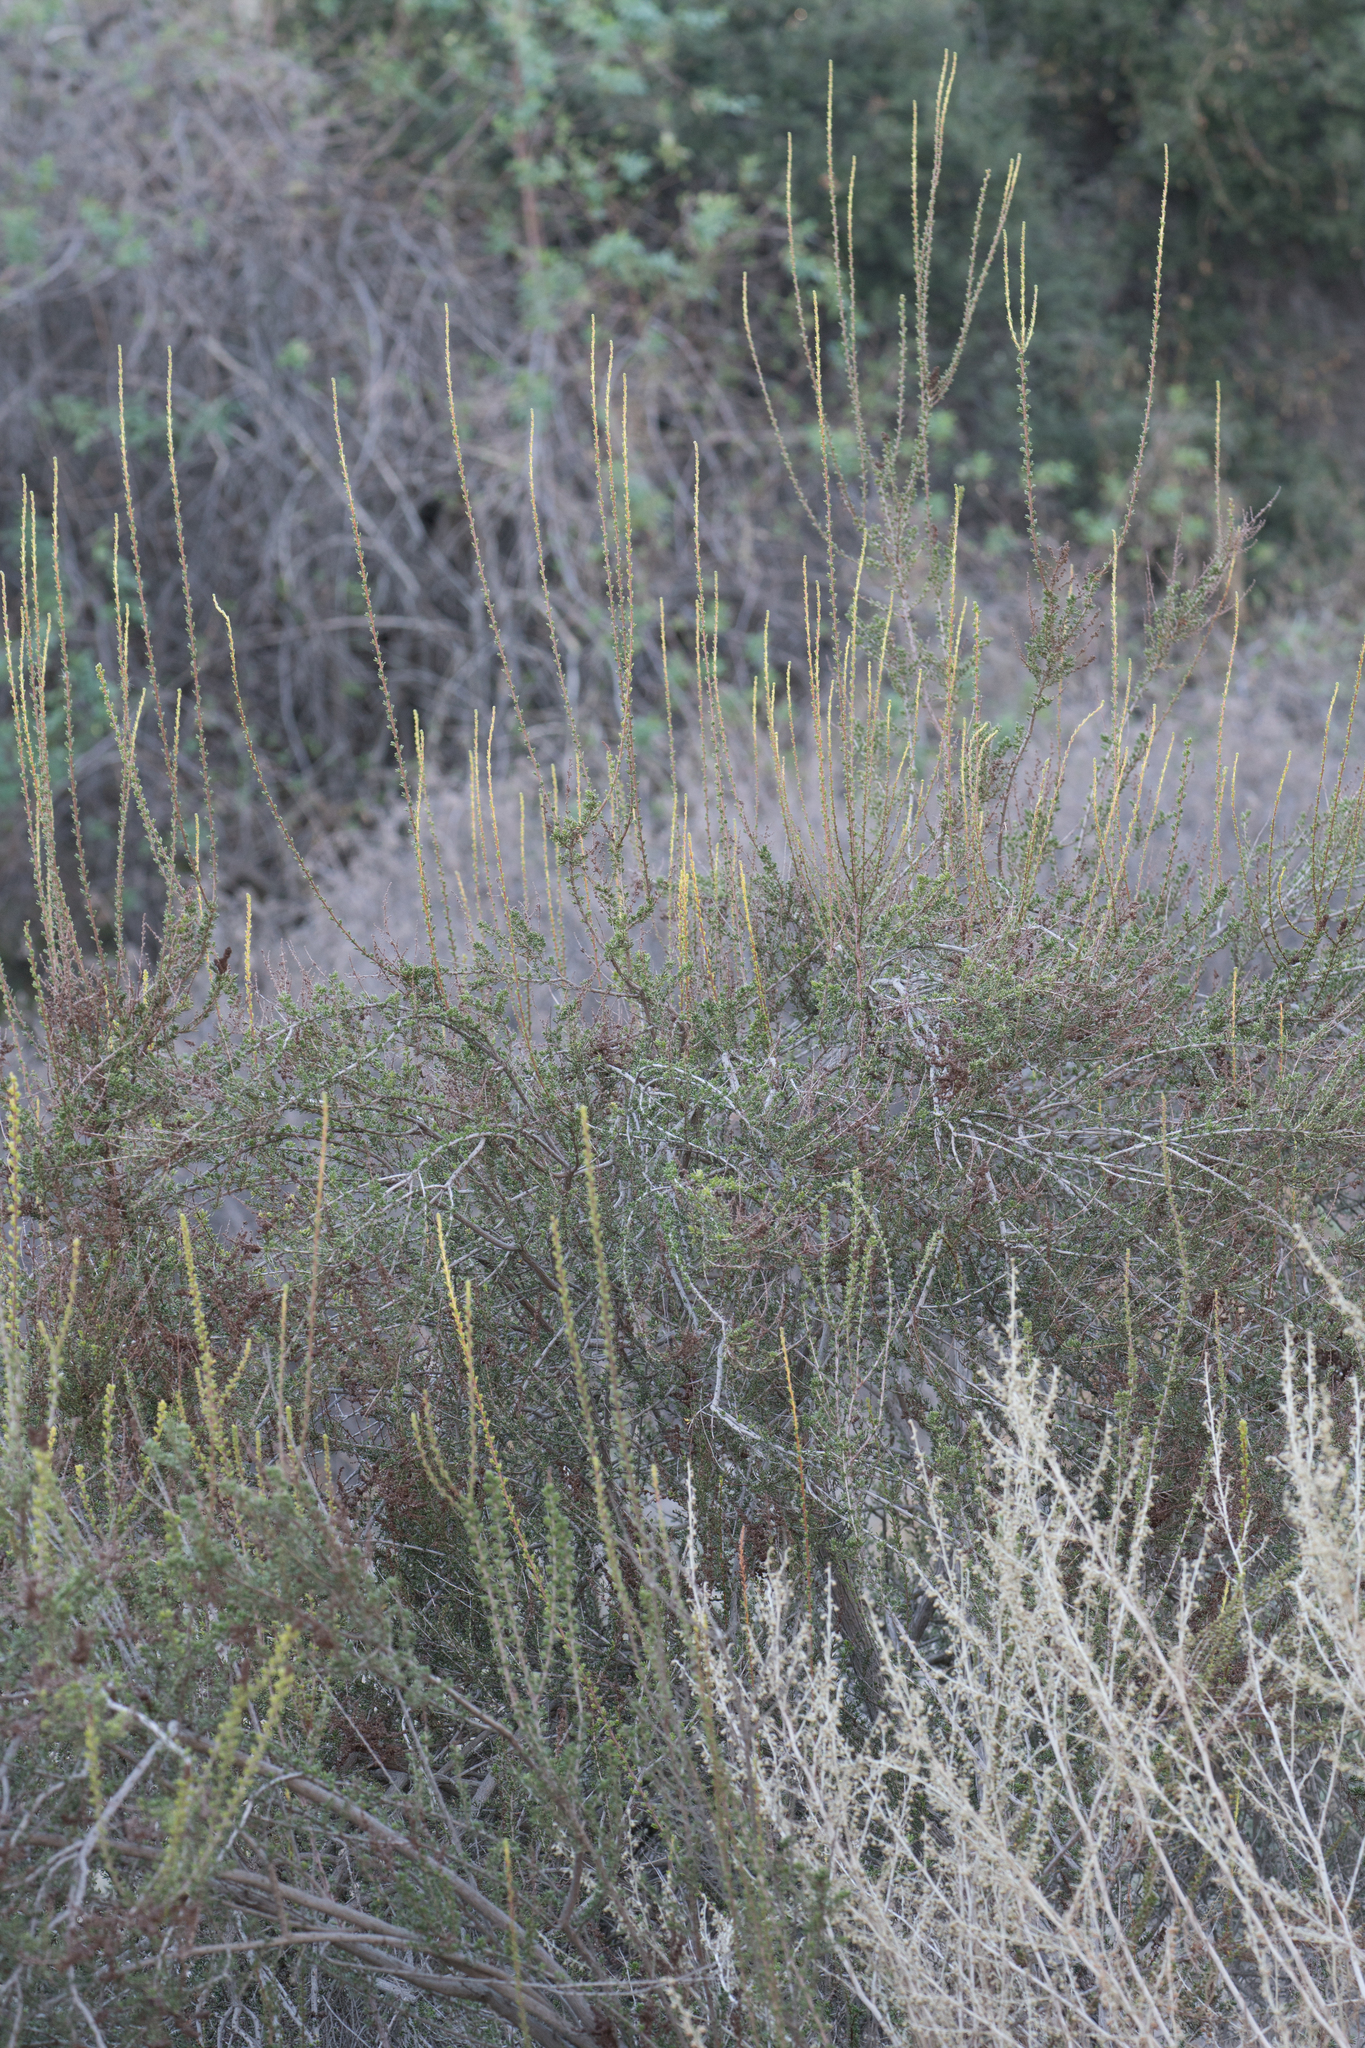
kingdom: Plantae
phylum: Tracheophyta
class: Magnoliopsida
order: Rosales
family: Rosaceae
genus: Adenostoma
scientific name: Adenostoma fasciculatum
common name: Chamise
